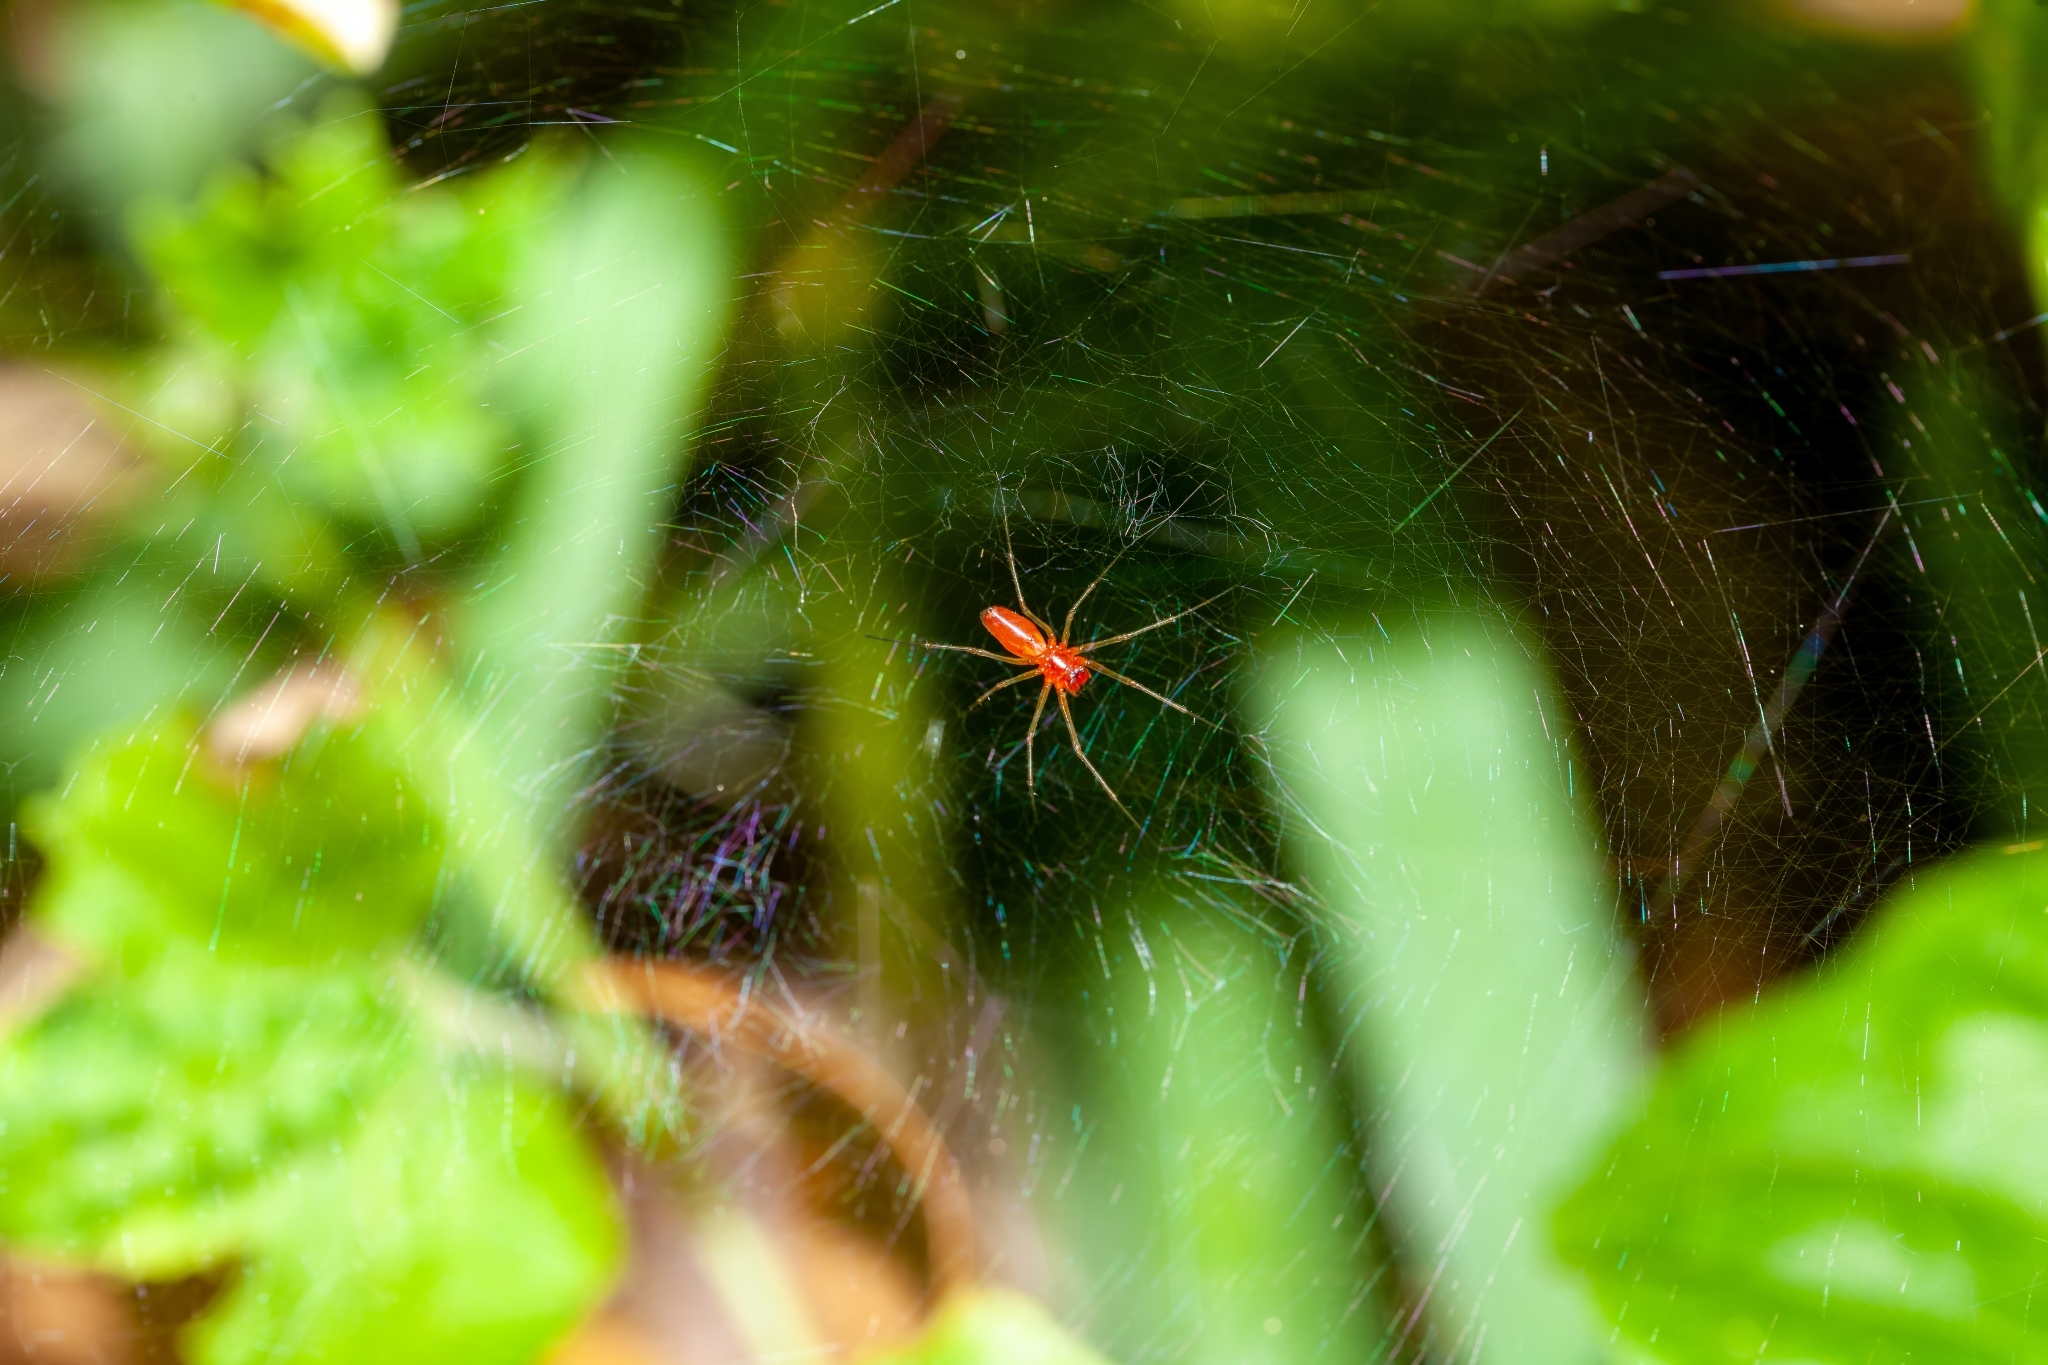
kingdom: Animalia
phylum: Arthropoda
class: Arachnida
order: Araneae
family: Linyphiidae
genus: Florinda
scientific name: Florinda coccinea
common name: Black-tailed red sheetweaver
